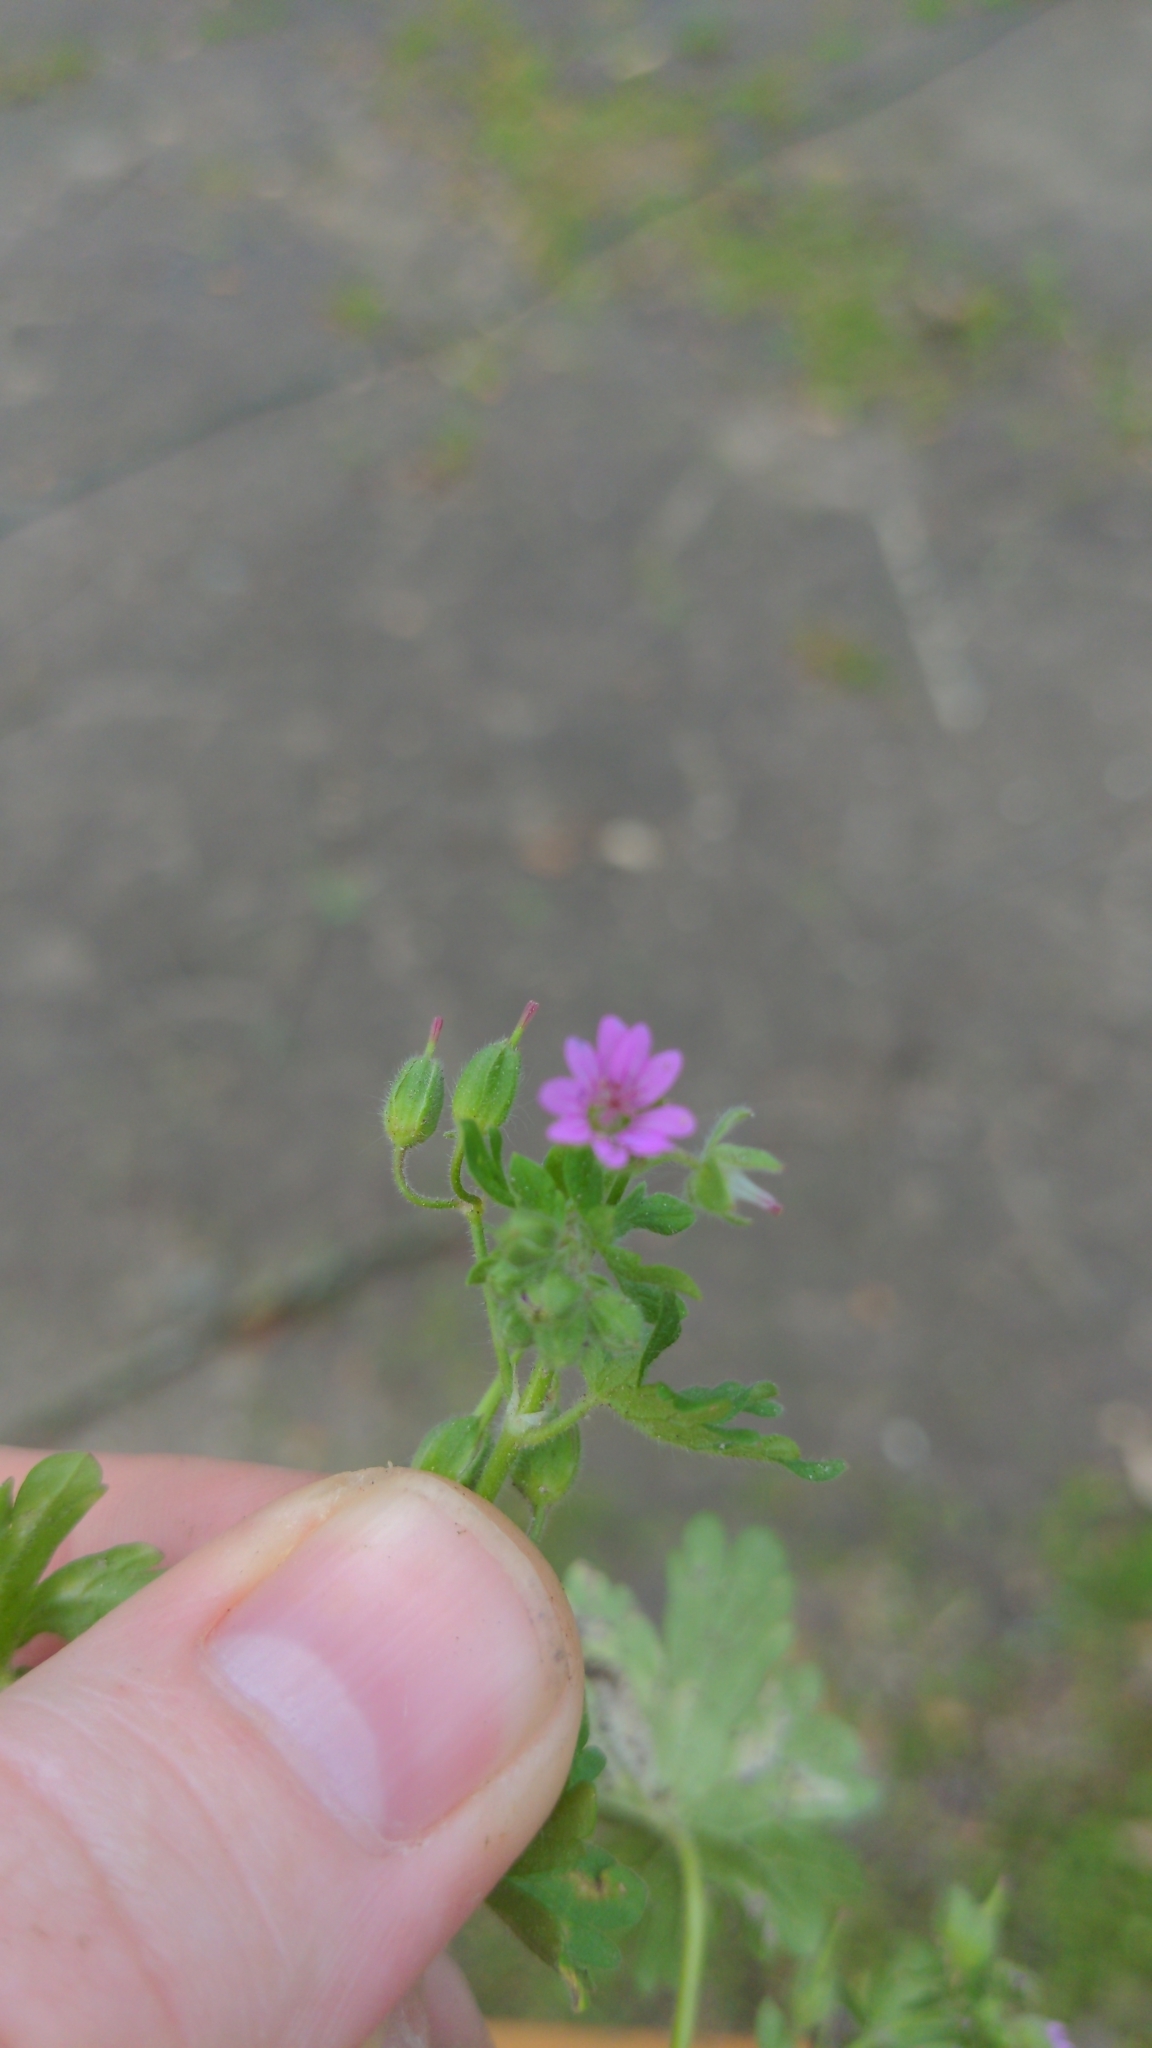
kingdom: Plantae
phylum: Tracheophyta
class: Magnoliopsida
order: Geraniales
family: Geraniaceae
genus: Geranium
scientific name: Geranium molle
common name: Dove's-foot crane's-bill
